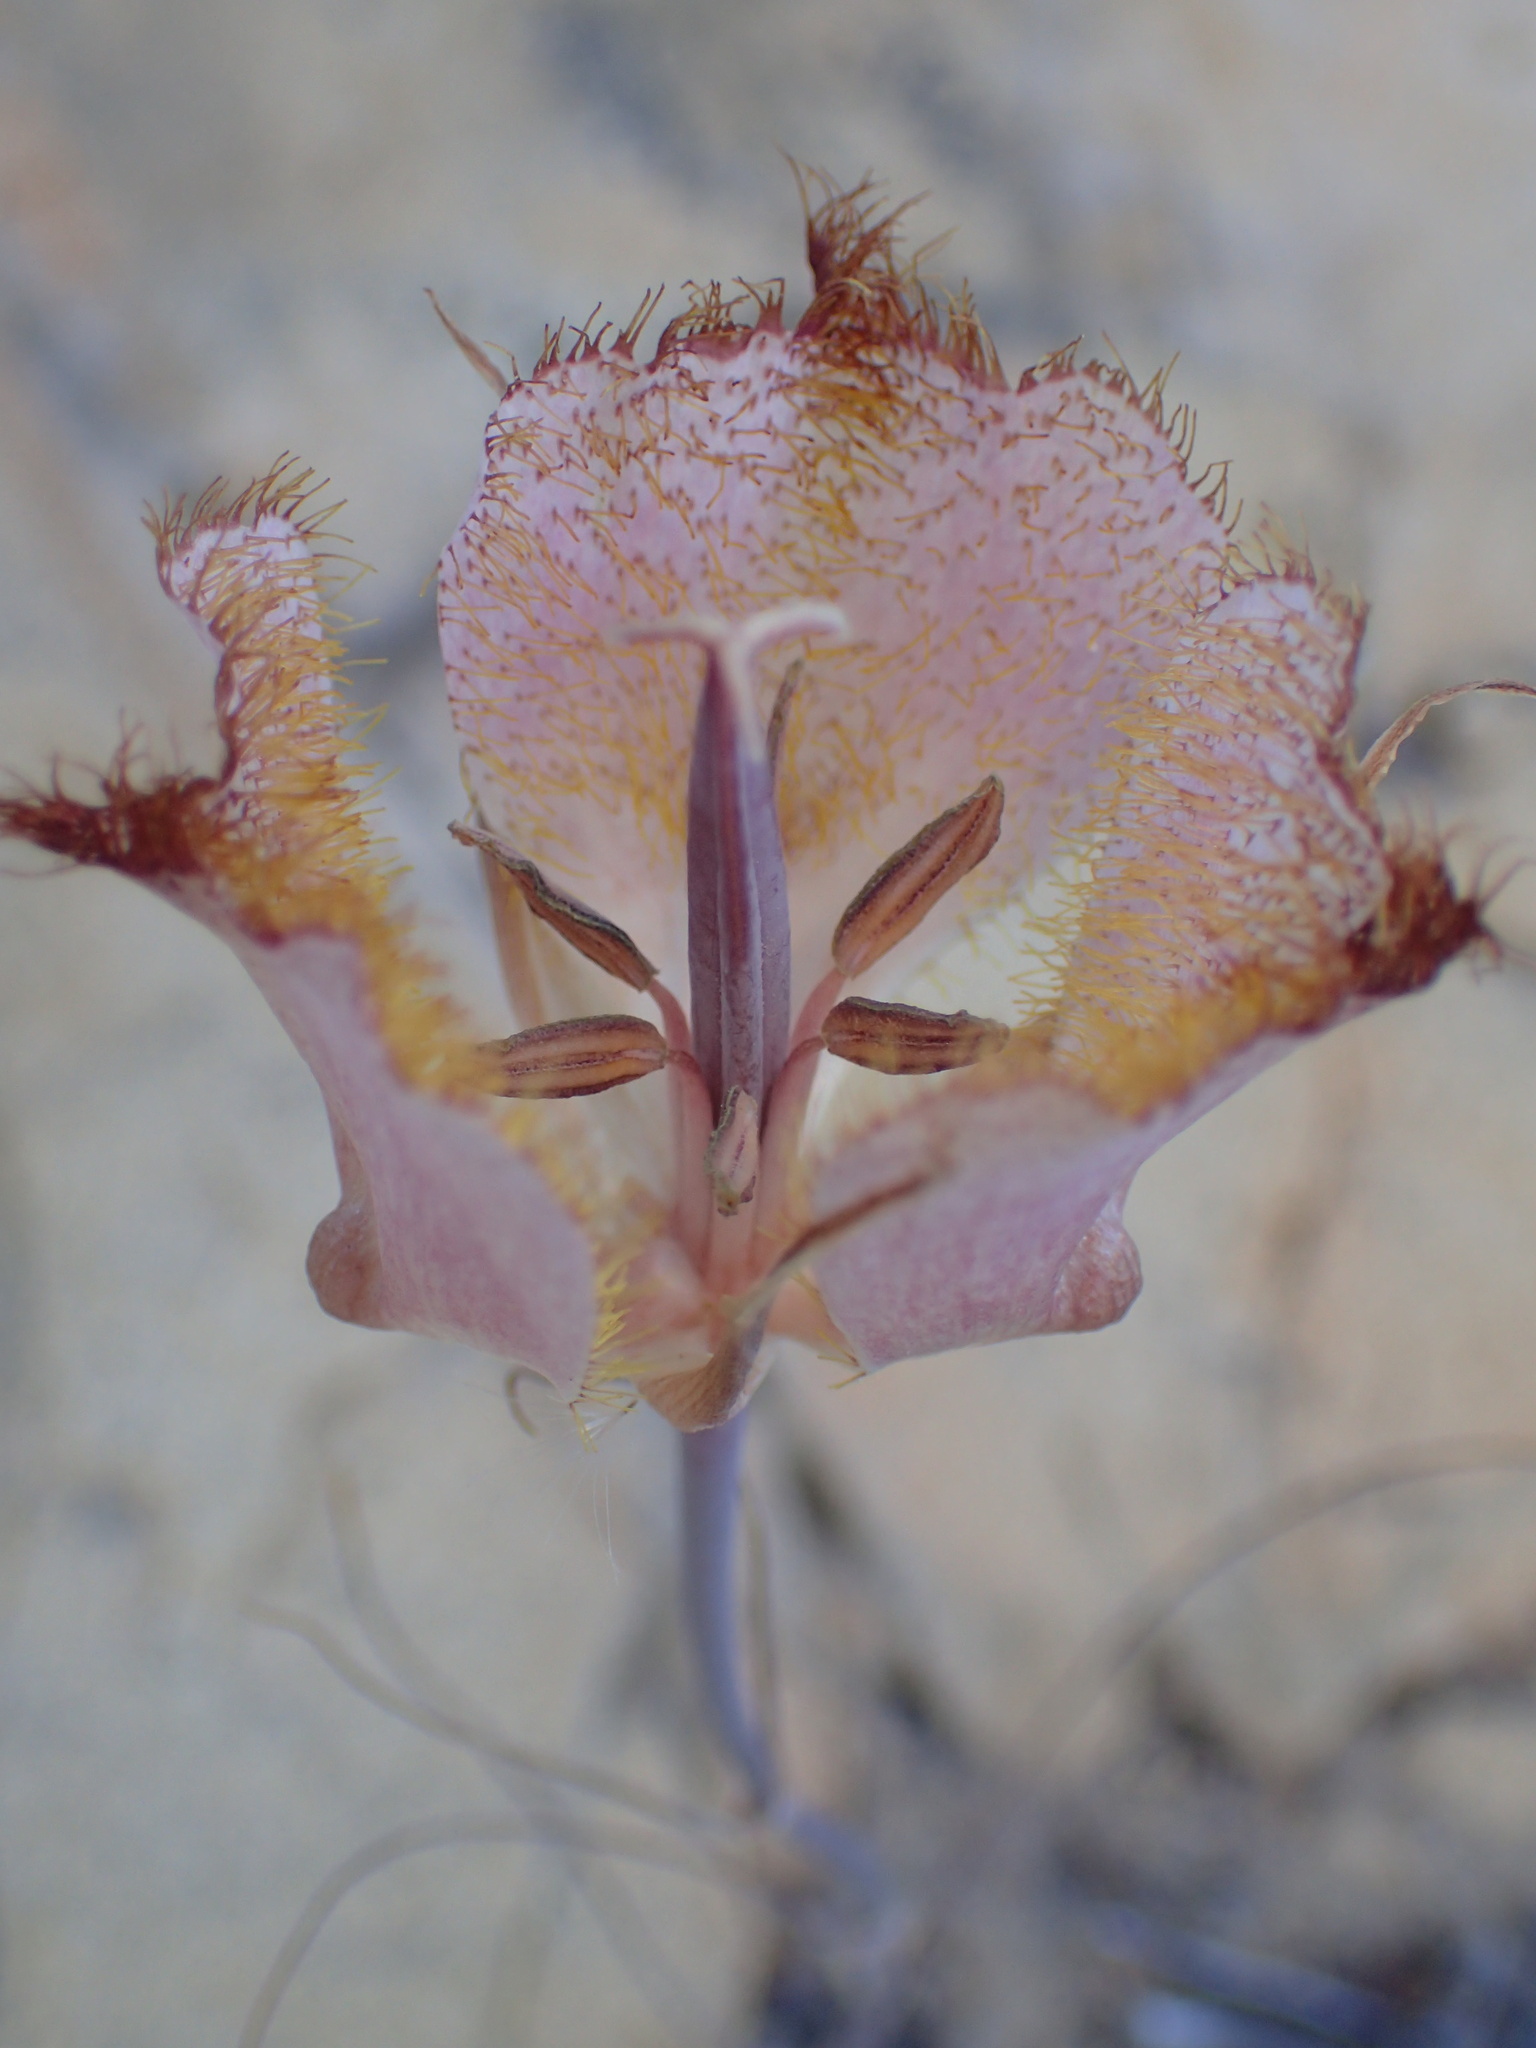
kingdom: Plantae
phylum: Tracheophyta
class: Liliopsida
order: Liliales
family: Liliaceae
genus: Calochortus
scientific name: Calochortus fimbriatus
